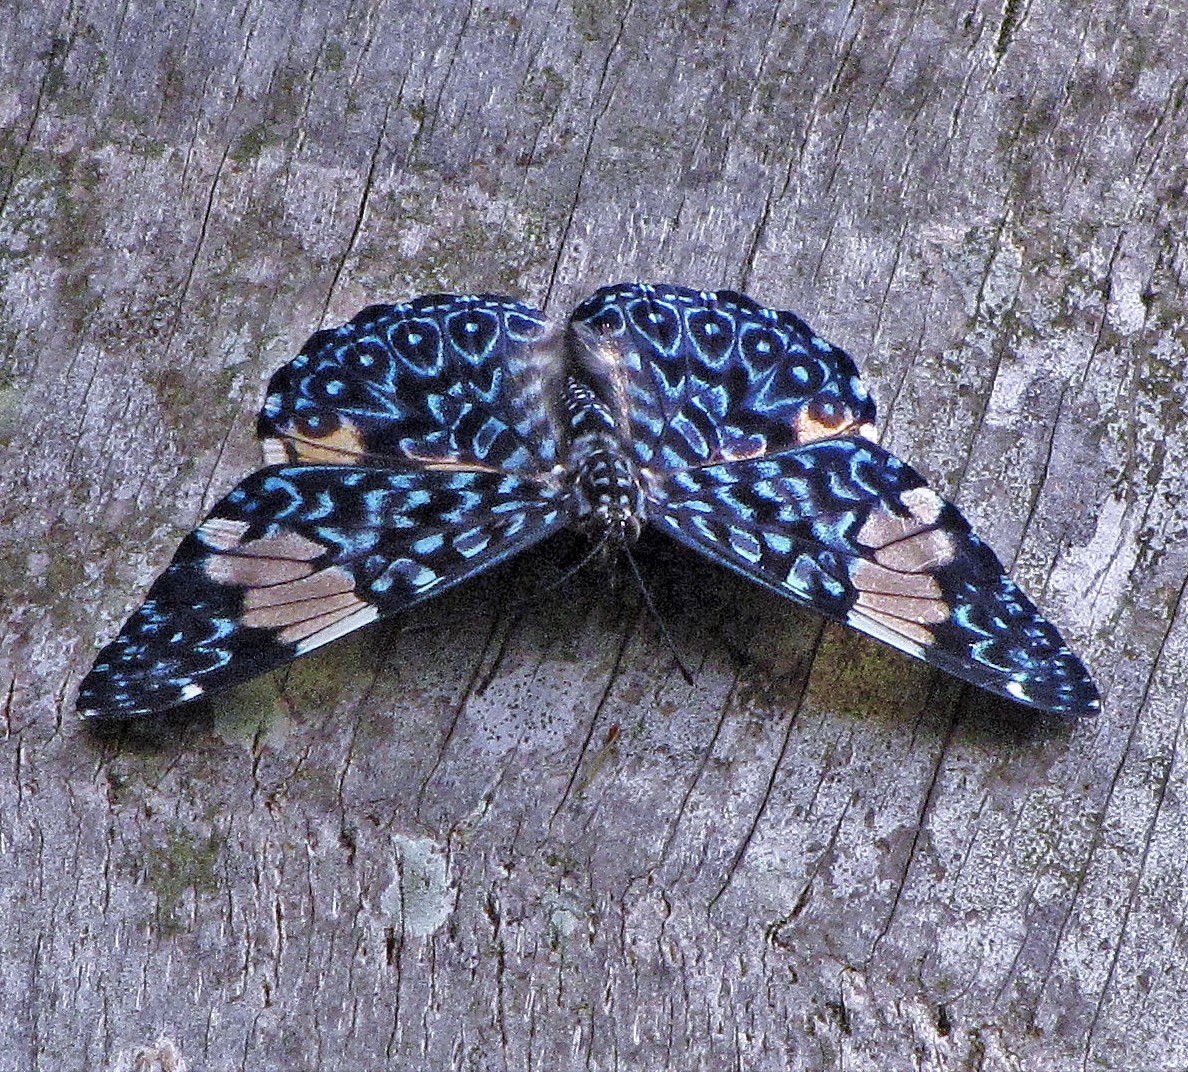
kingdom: Animalia
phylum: Arthropoda
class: Insecta
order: Lepidoptera
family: Nymphalidae
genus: Hamadryas
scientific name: Hamadryas amphinome
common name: Red cracker
